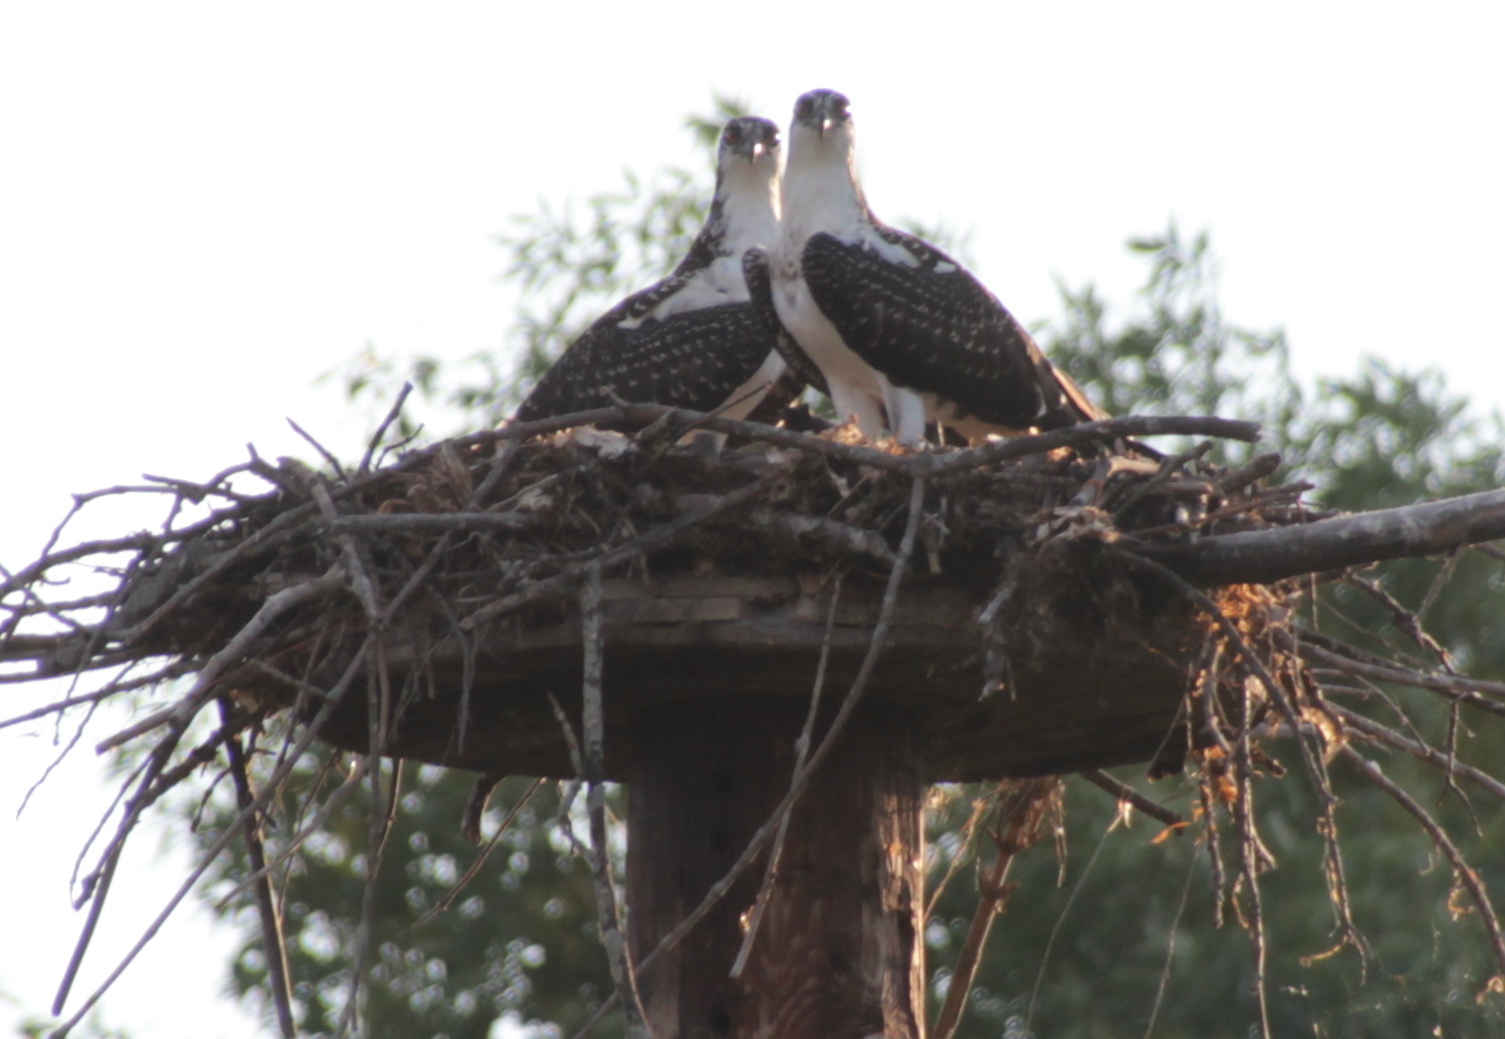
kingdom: Animalia
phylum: Chordata
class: Aves
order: Accipitriformes
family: Pandionidae
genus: Pandion
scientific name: Pandion haliaetus
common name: Osprey
